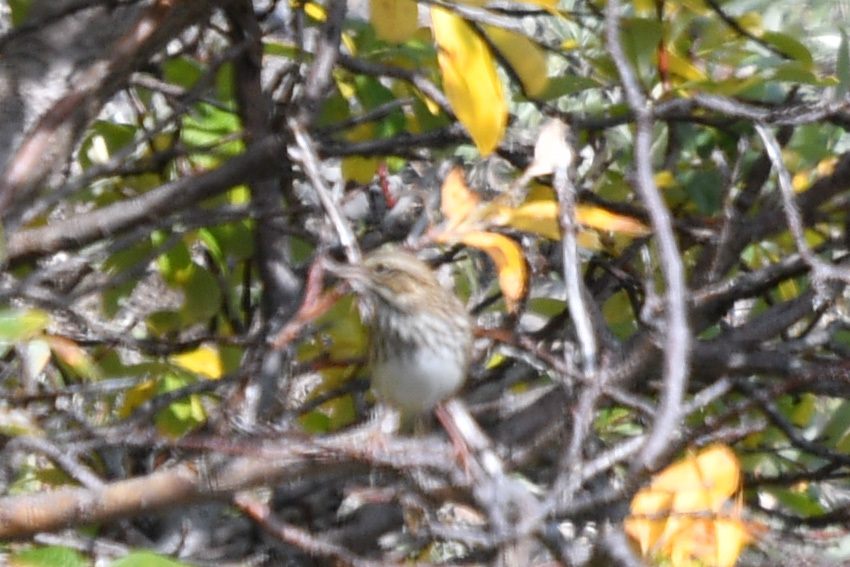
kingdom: Animalia
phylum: Chordata
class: Aves
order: Passeriformes
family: Passerellidae
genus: Passerculus
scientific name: Passerculus sandwichensis
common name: Savannah sparrow
